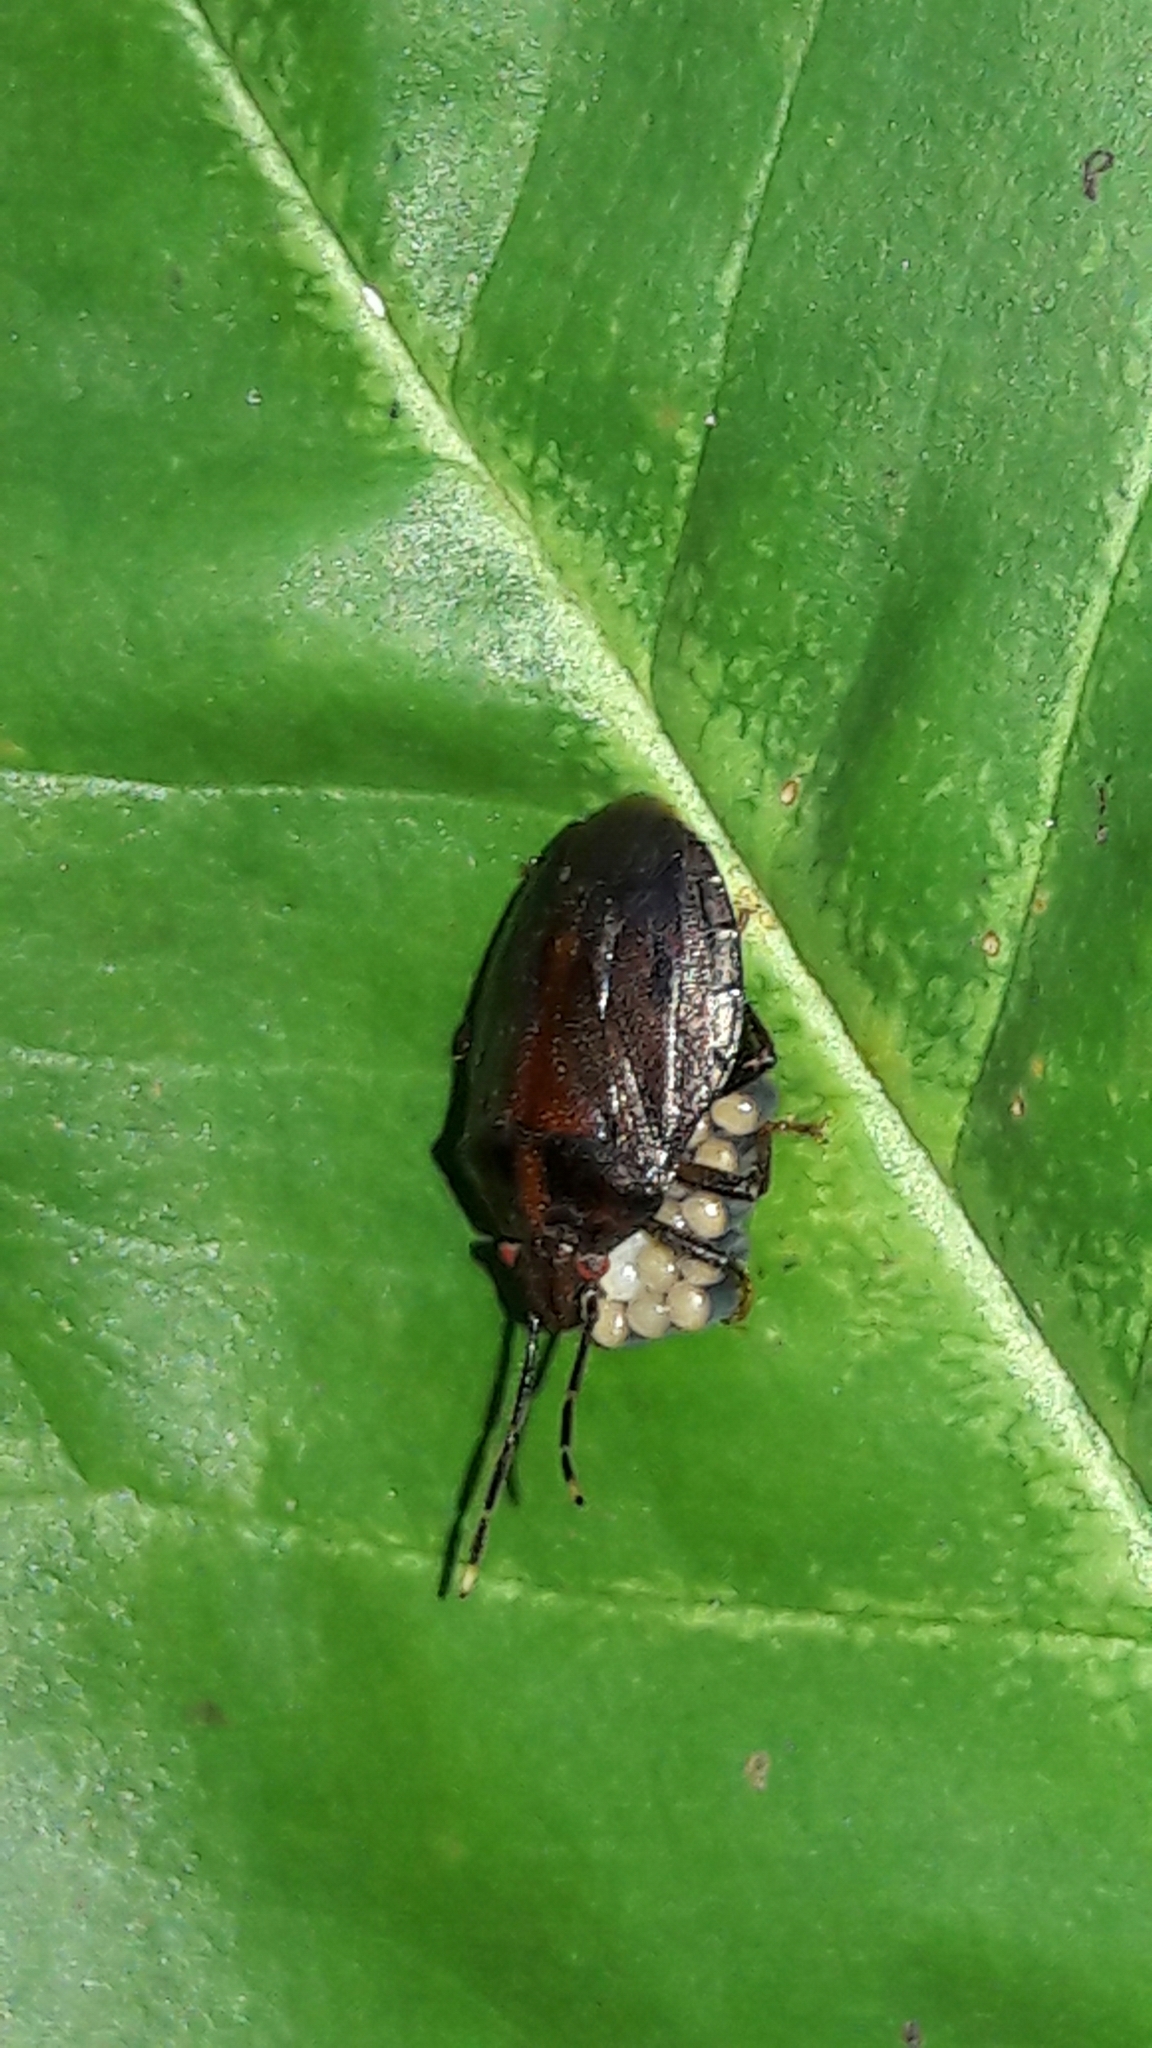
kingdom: Animalia
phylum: Arthropoda
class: Insecta
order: Hemiptera
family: Pentatomidae
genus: Antiteuchus
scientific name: Antiteuchus tripterus
